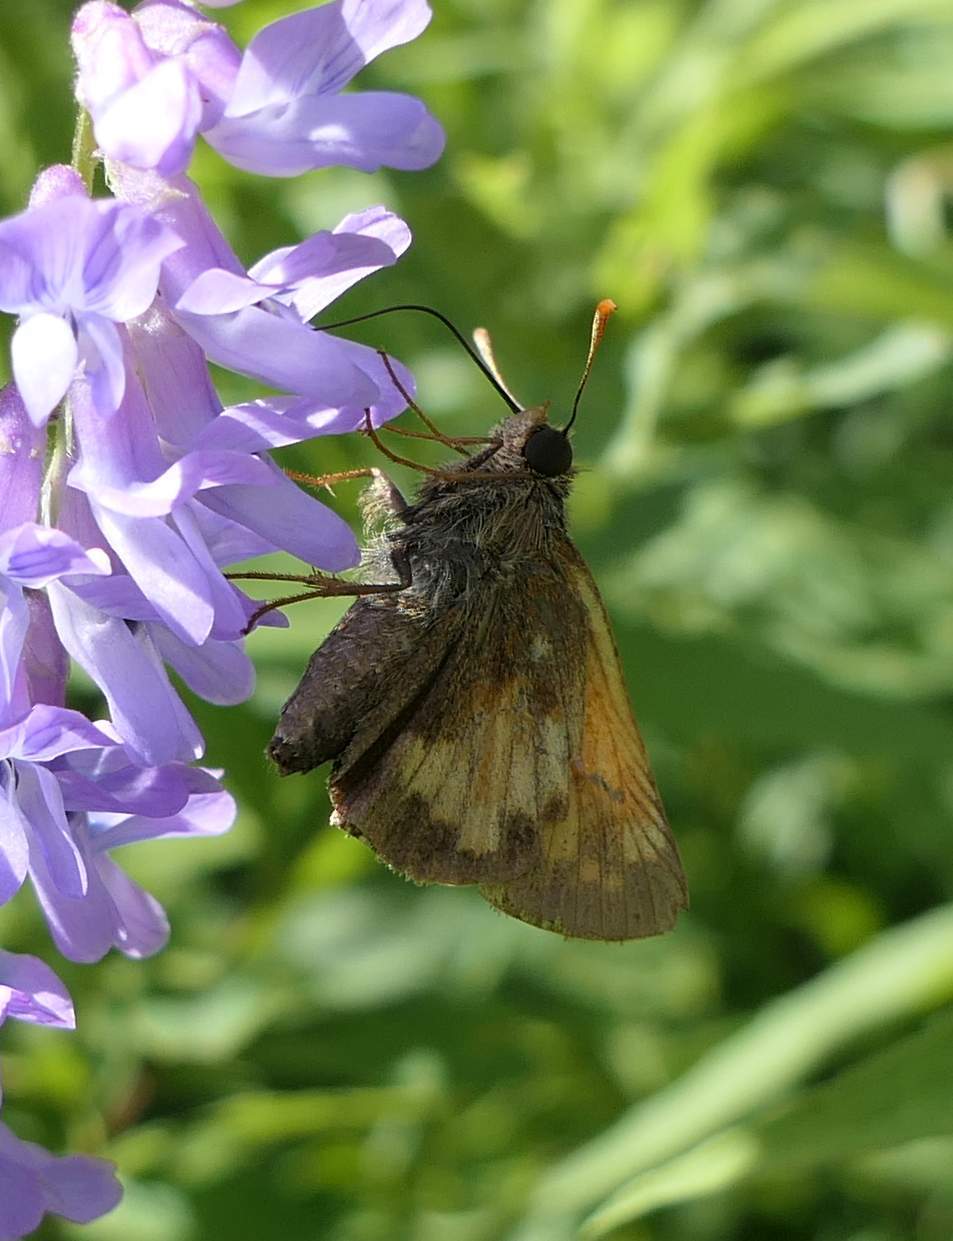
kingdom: Animalia
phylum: Arthropoda
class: Insecta
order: Lepidoptera
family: Hesperiidae
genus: Lon
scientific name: Lon hobomok
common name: Hobomok skipper
